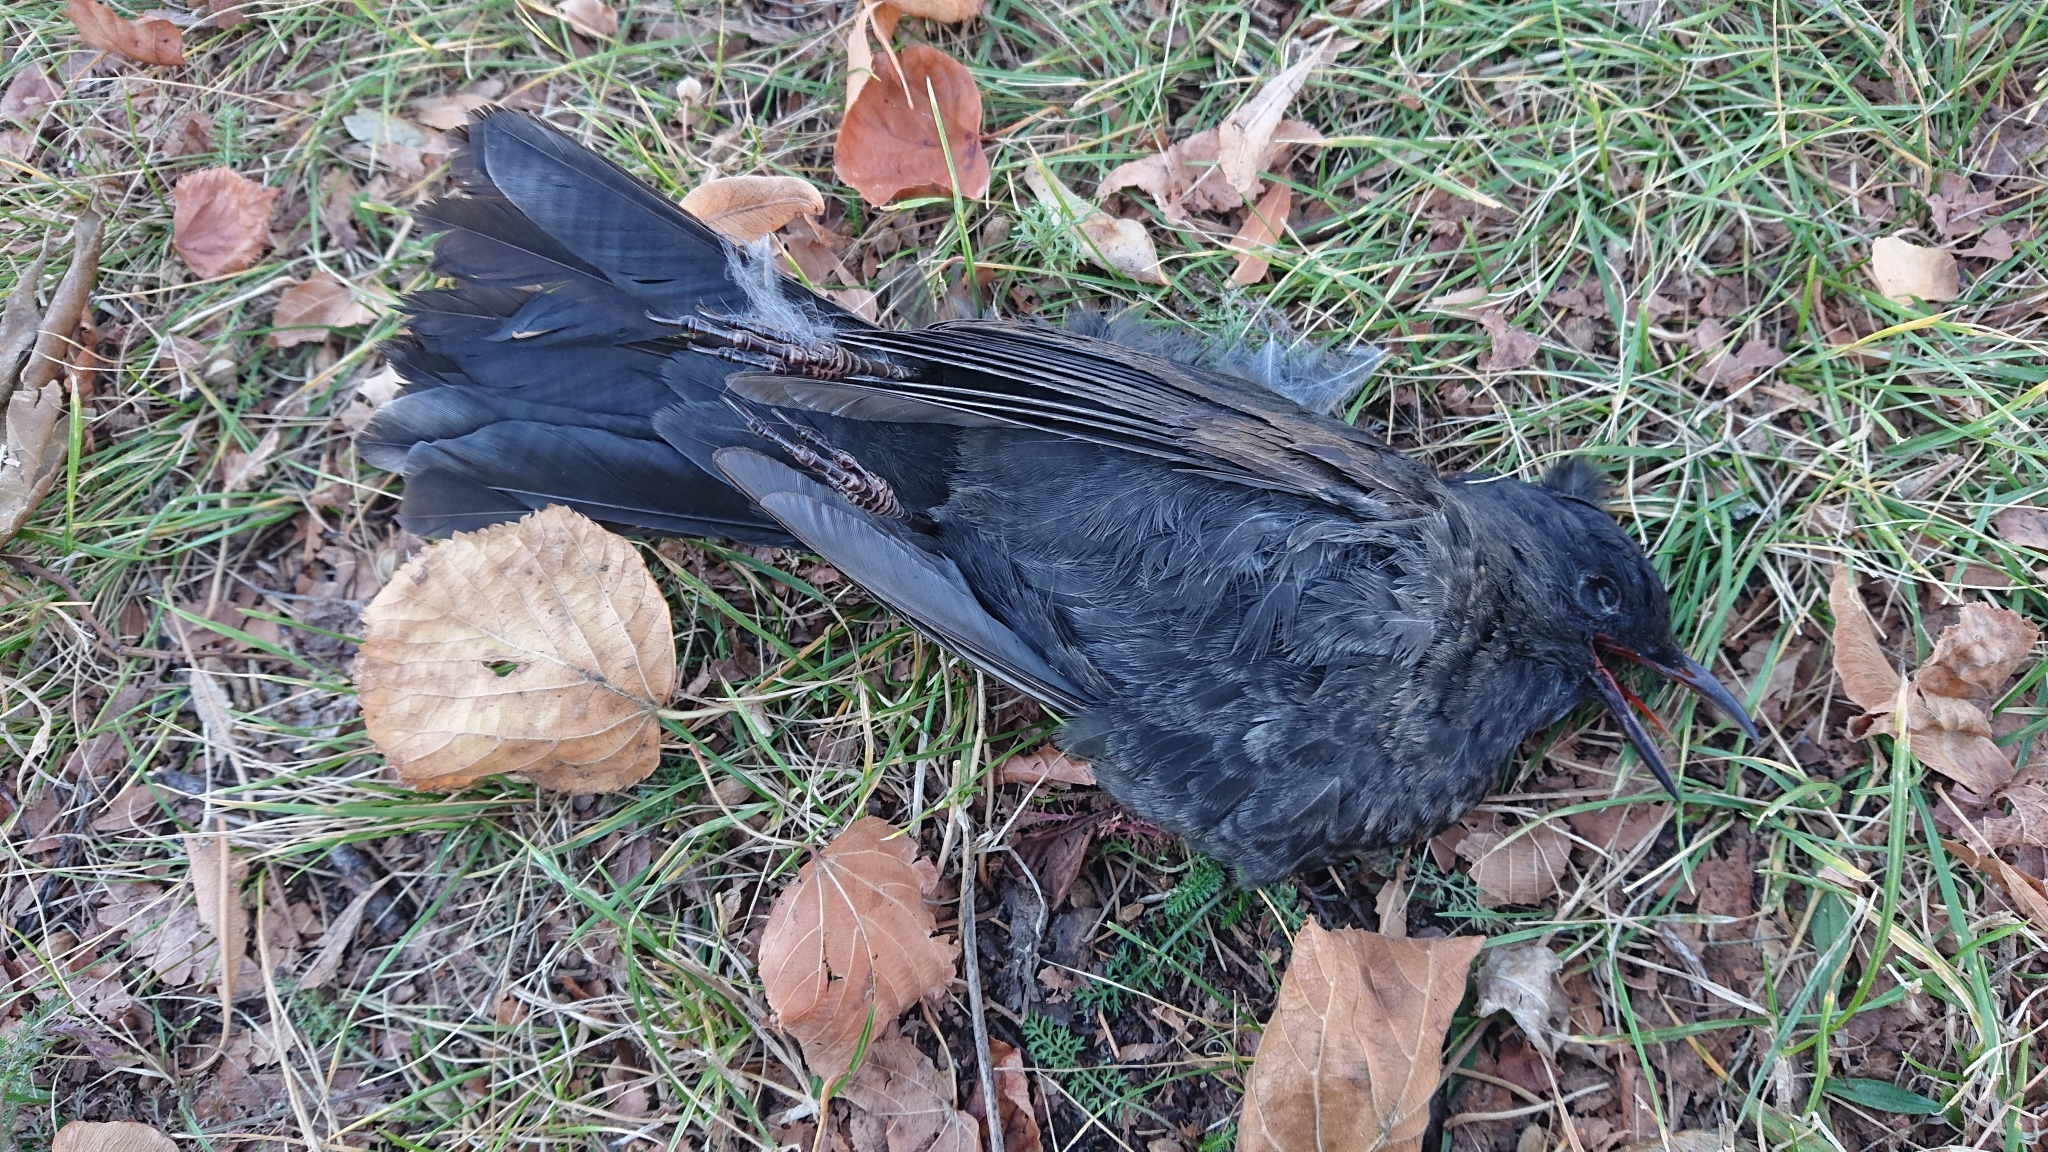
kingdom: Animalia
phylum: Chordata
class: Aves
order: Passeriformes
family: Turdidae
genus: Turdus
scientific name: Turdus merula
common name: Common blackbird
